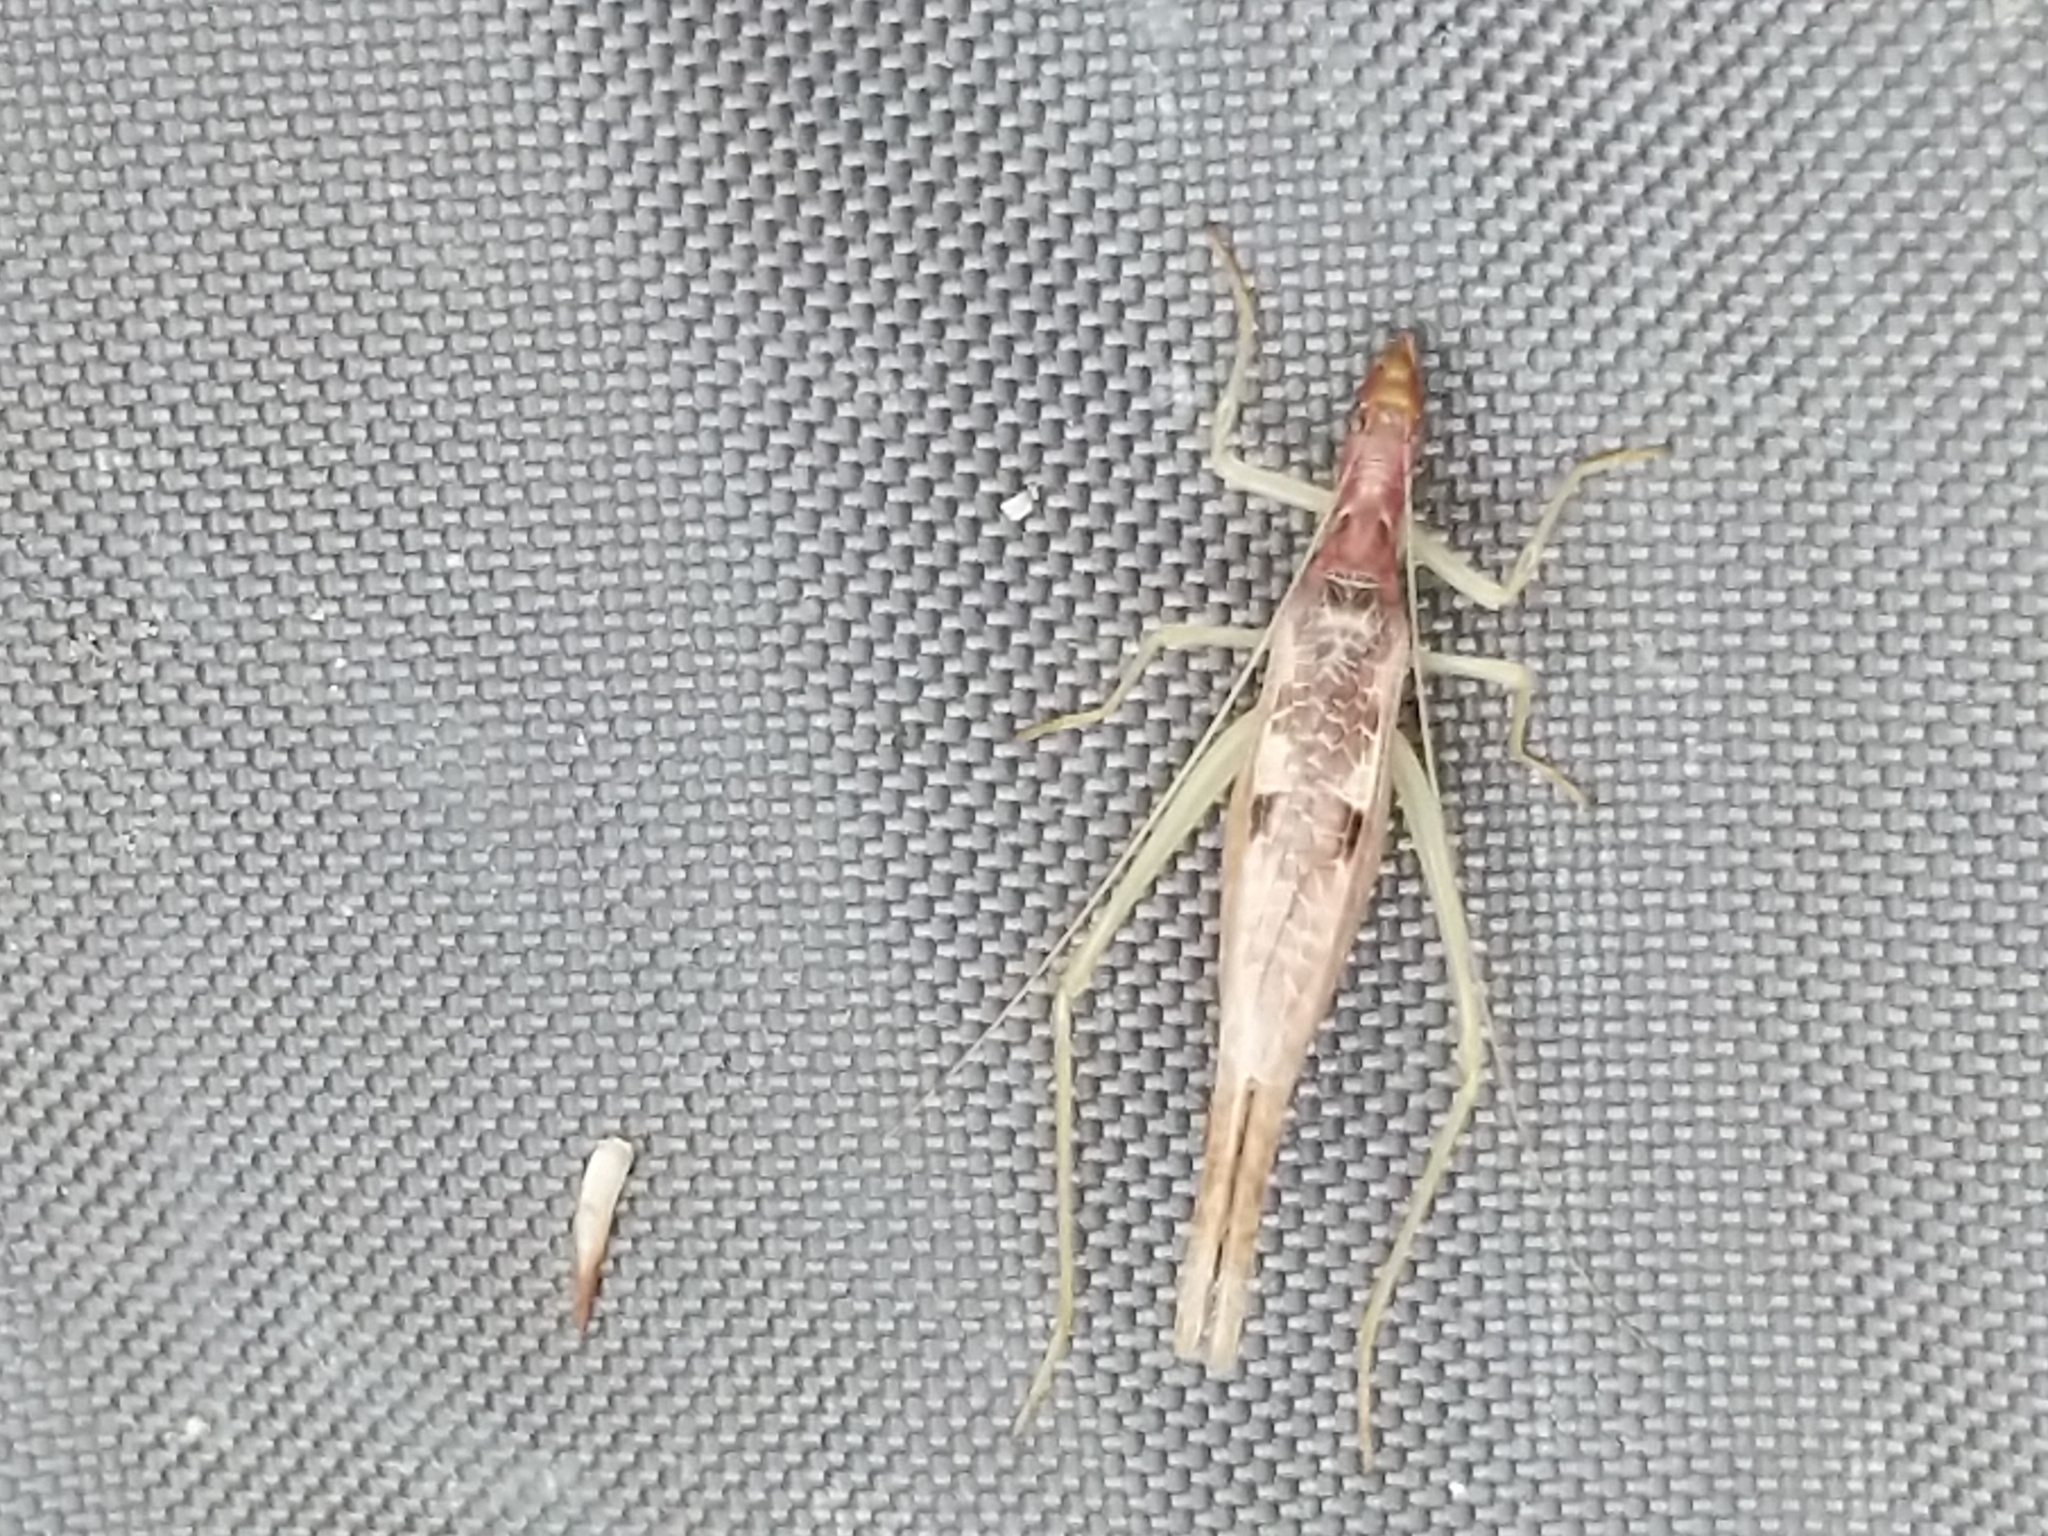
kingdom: Animalia
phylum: Arthropoda
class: Insecta
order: Orthoptera
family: Gryllidae
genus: Neoxabea
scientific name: Neoxabea bipunctata
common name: Two-spotted tree cricket
